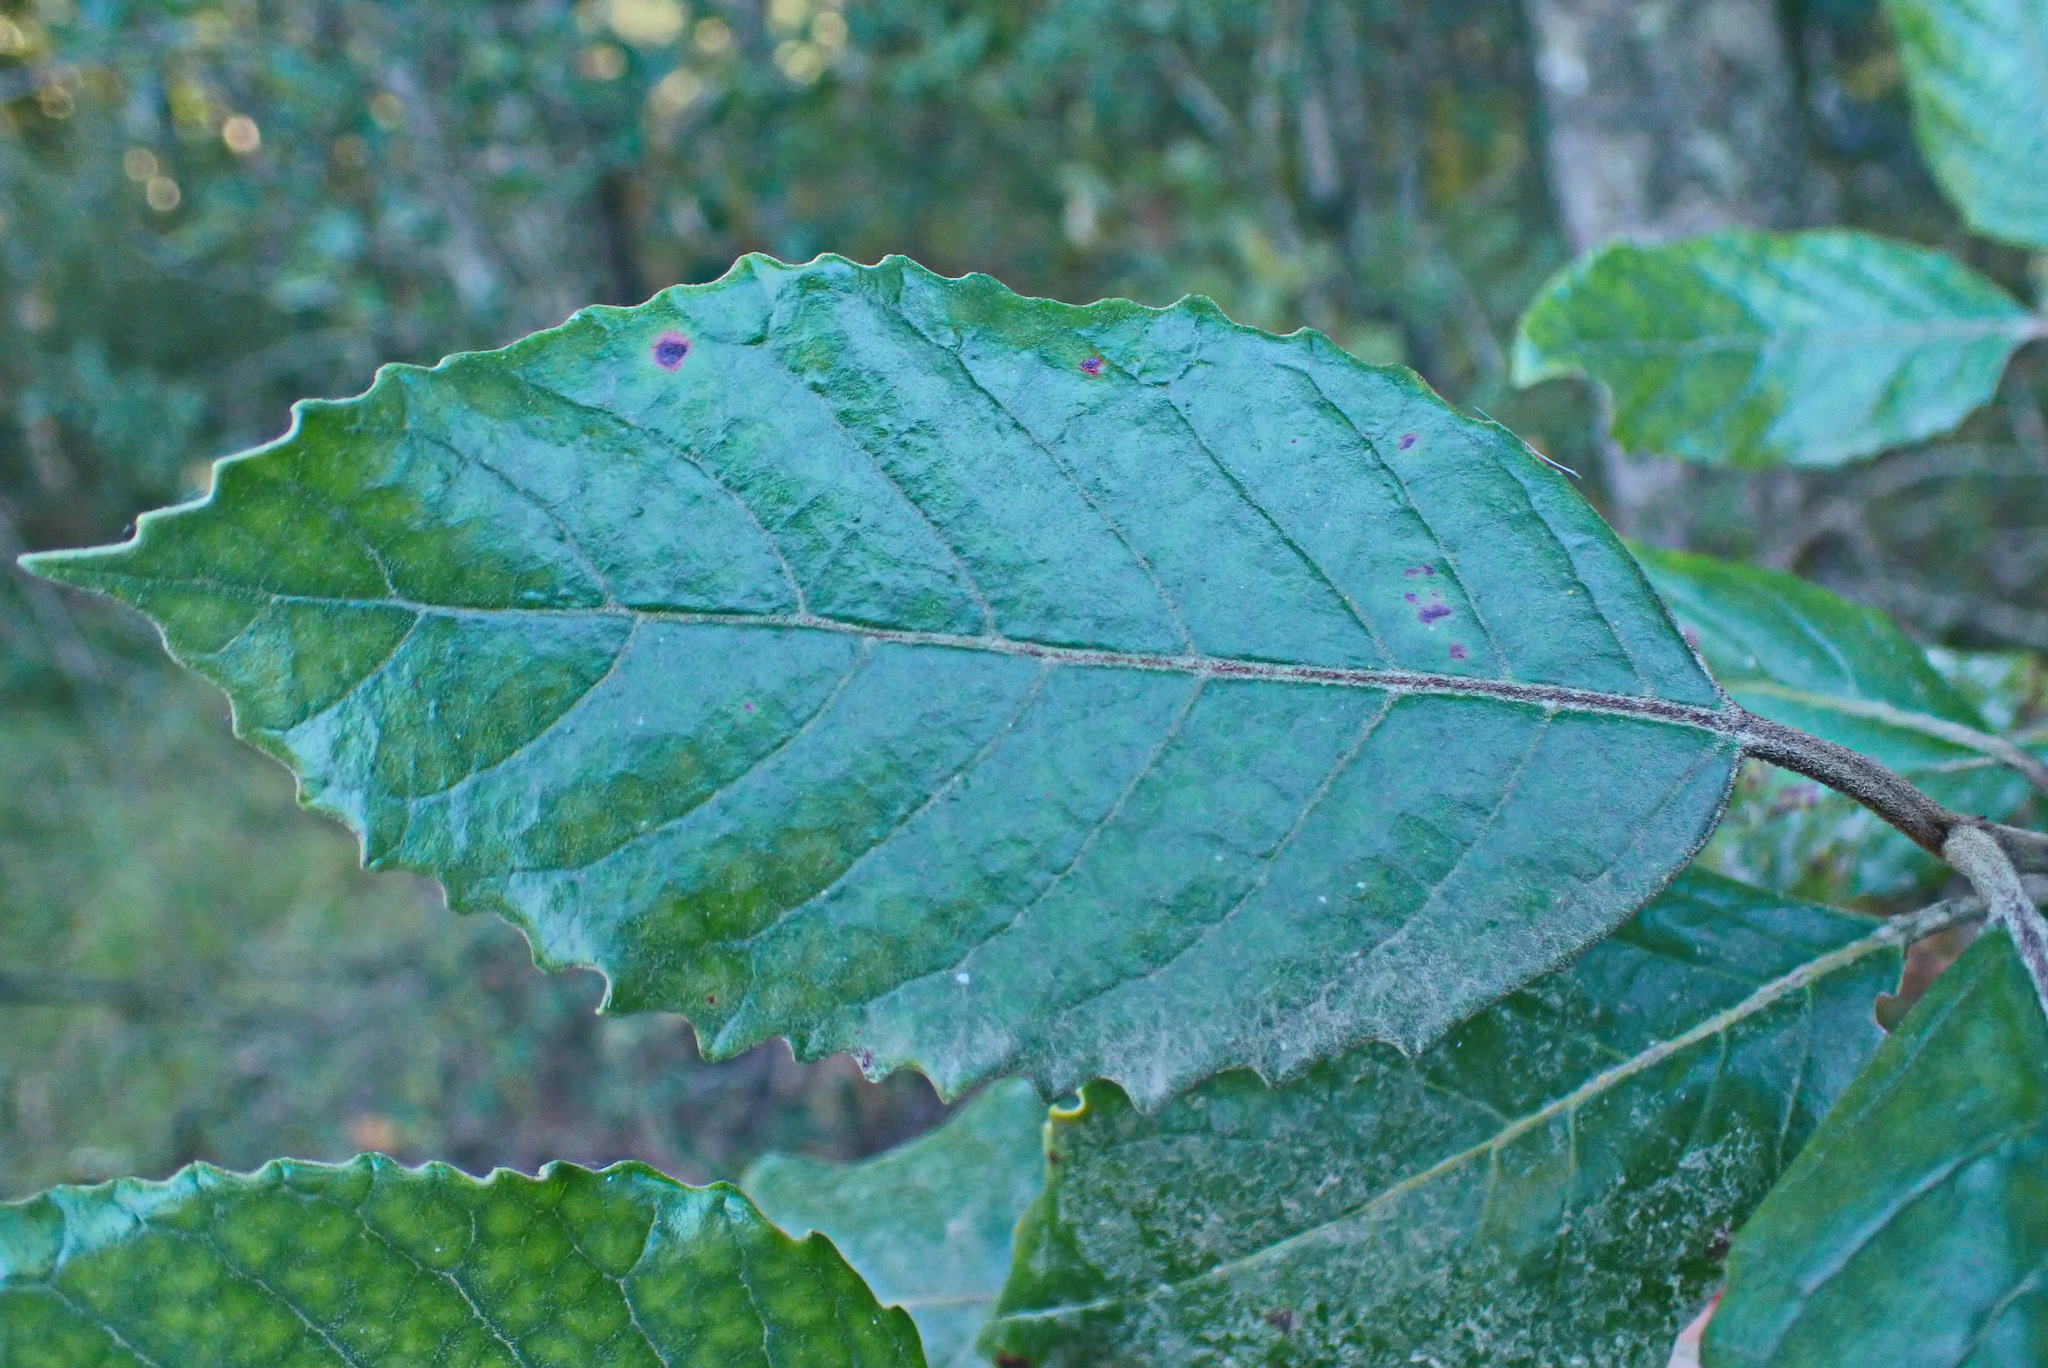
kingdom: Plantae
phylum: Tracheophyta
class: Magnoliopsida
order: Cornales
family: Curtisiaceae
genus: Curtisia
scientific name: Curtisia dentata
